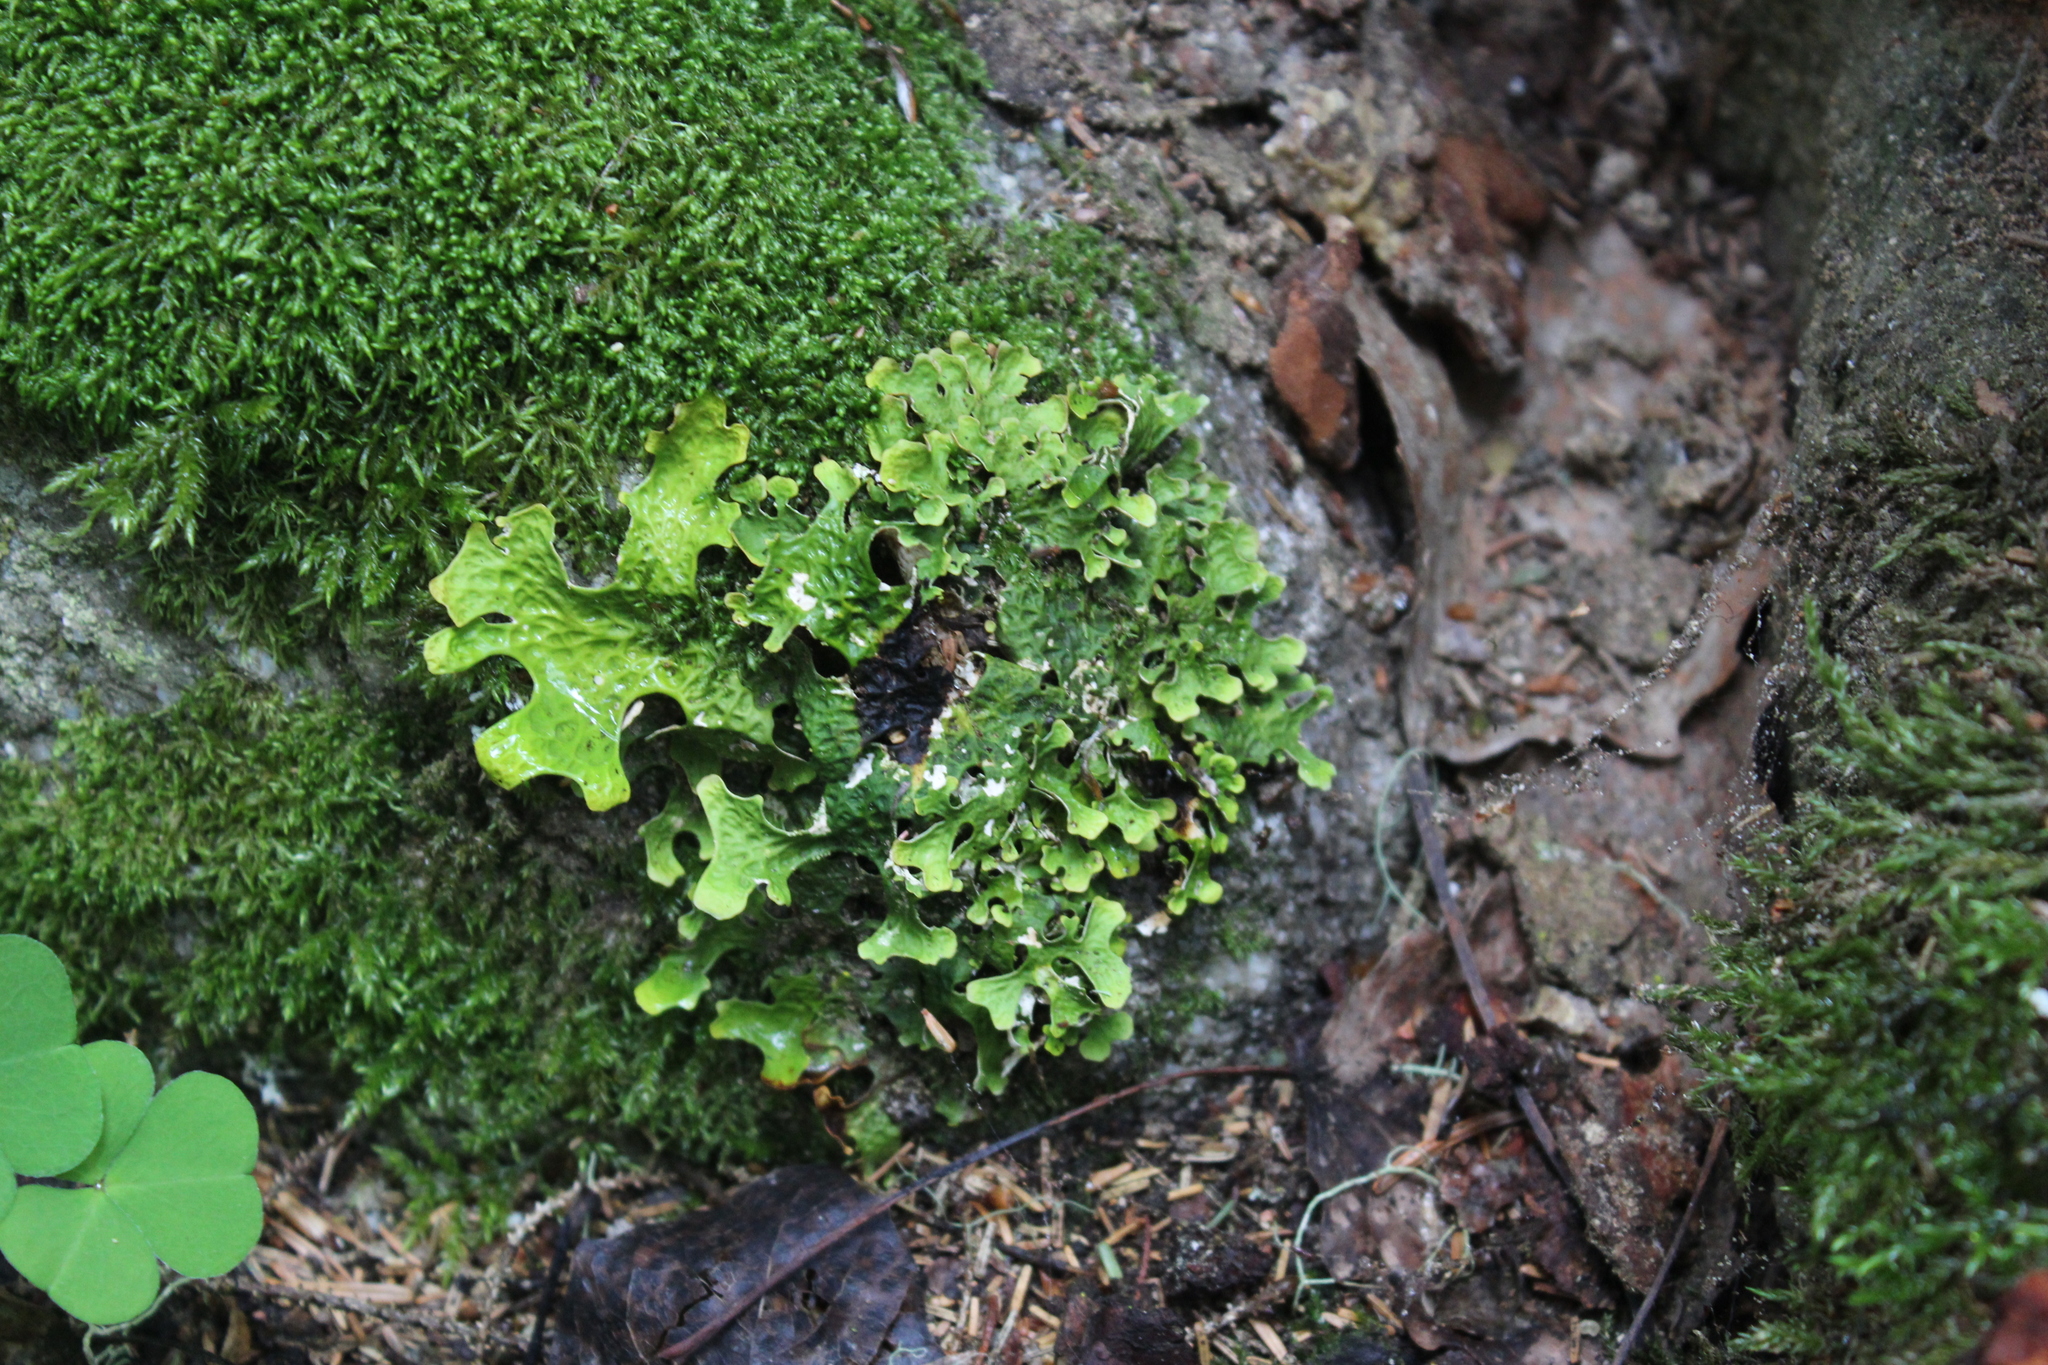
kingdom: Fungi
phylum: Ascomycota
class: Lecanoromycetes
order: Peltigerales
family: Lobariaceae
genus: Lobaria
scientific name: Lobaria pulmonaria
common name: Lungwort
